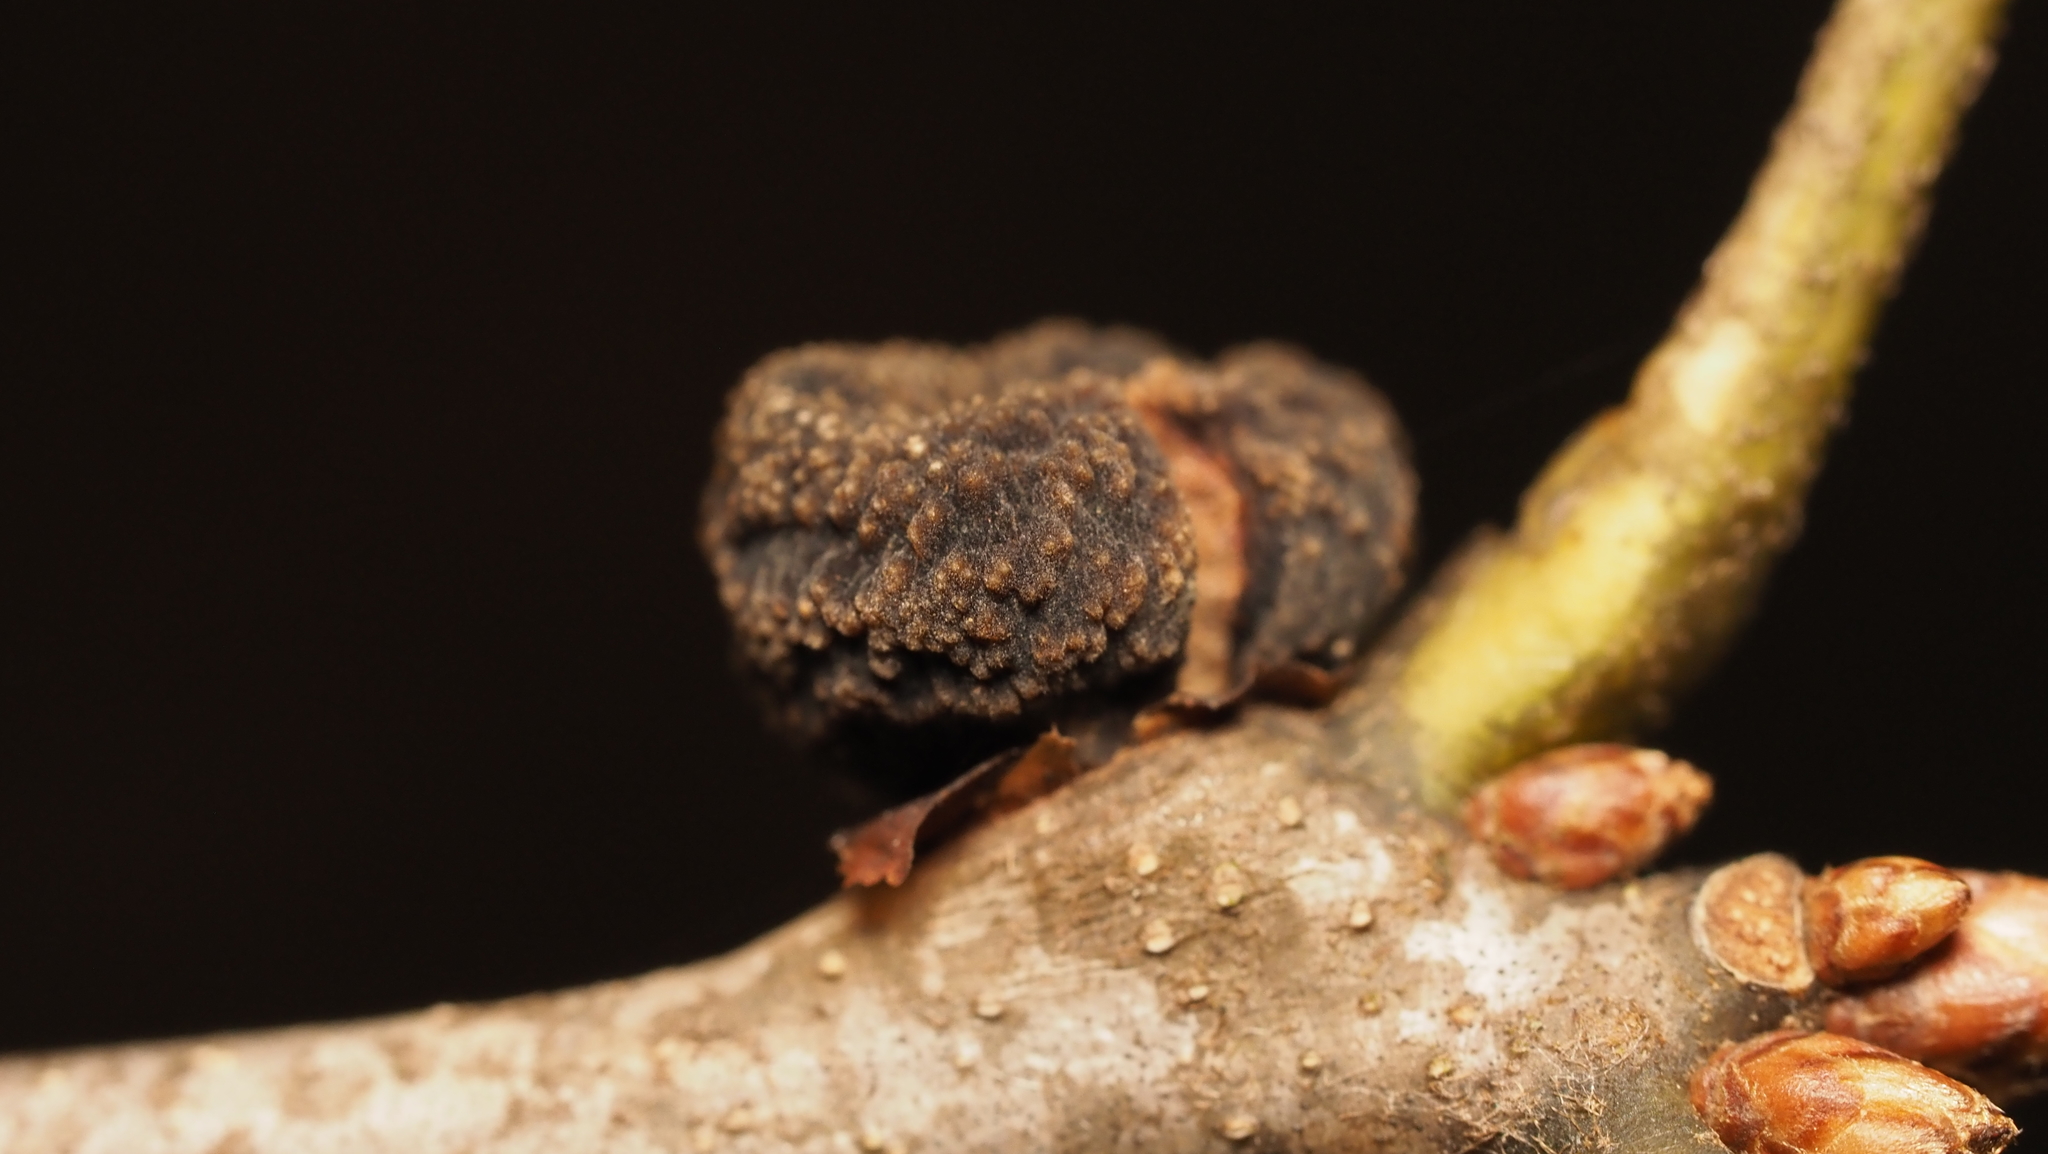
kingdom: Animalia
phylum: Arthropoda
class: Insecta
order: Hymenoptera
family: Cynipidae
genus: Kokkocynips
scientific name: Kokkocynips imbricariae
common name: Banded bullet gall wasp
